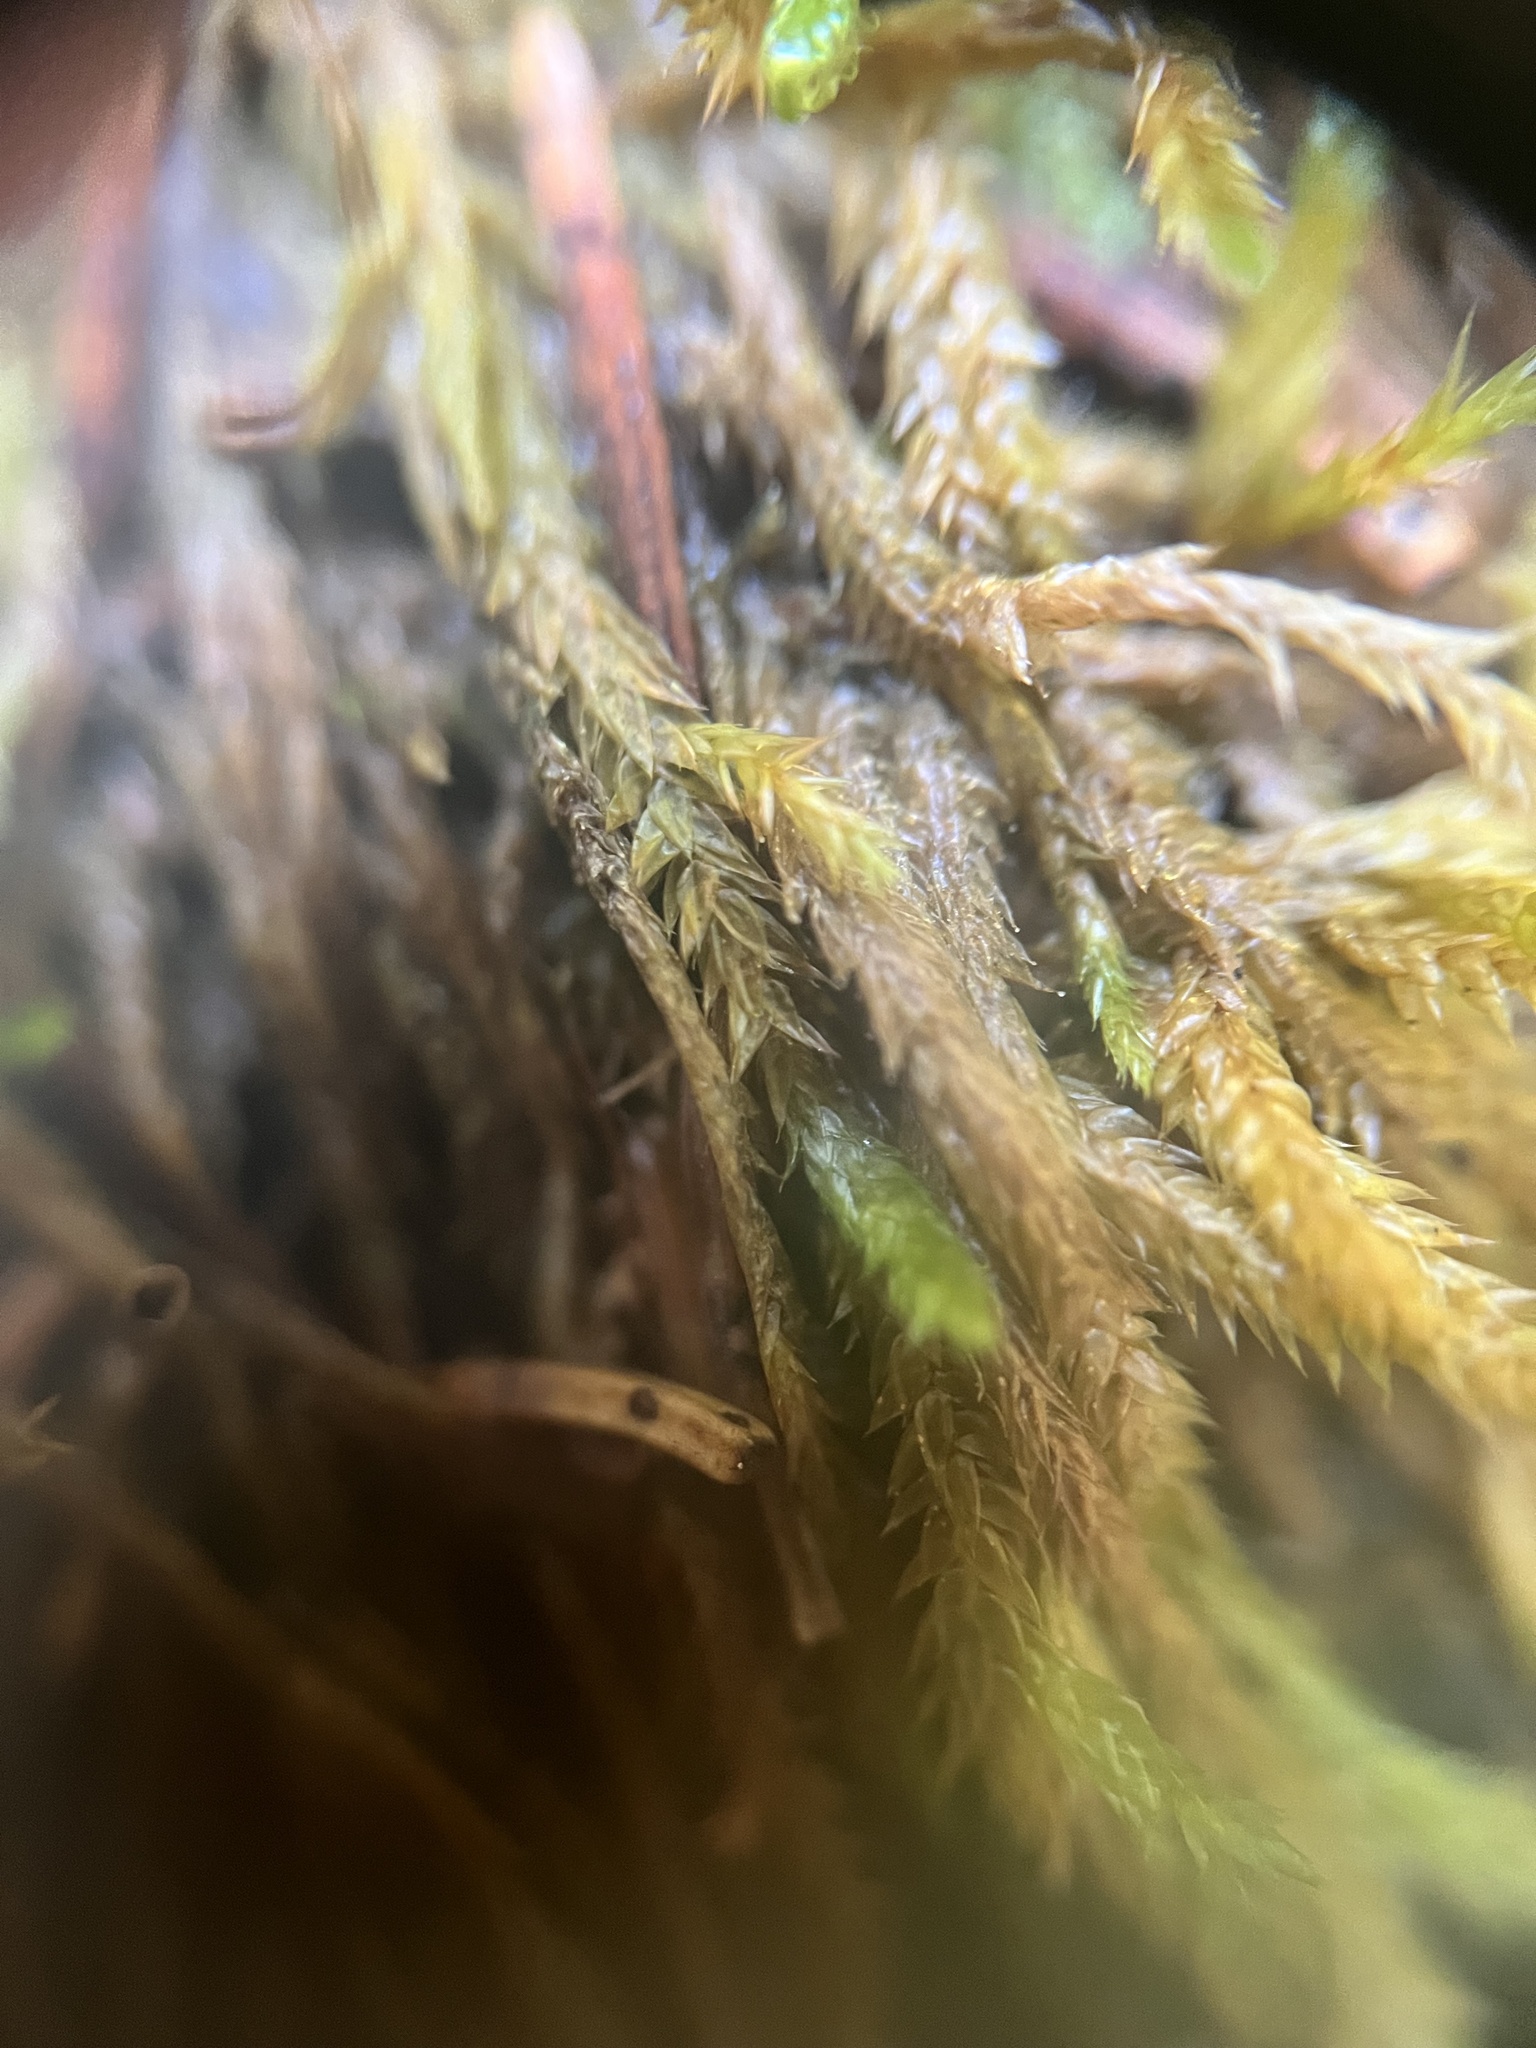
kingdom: Plantae
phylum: Bryophyta
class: Bryopsida
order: Hypnales
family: Callicladiaceae
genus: Callicladium
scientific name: Callicladium haldanianum
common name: Beautiful branch moss
